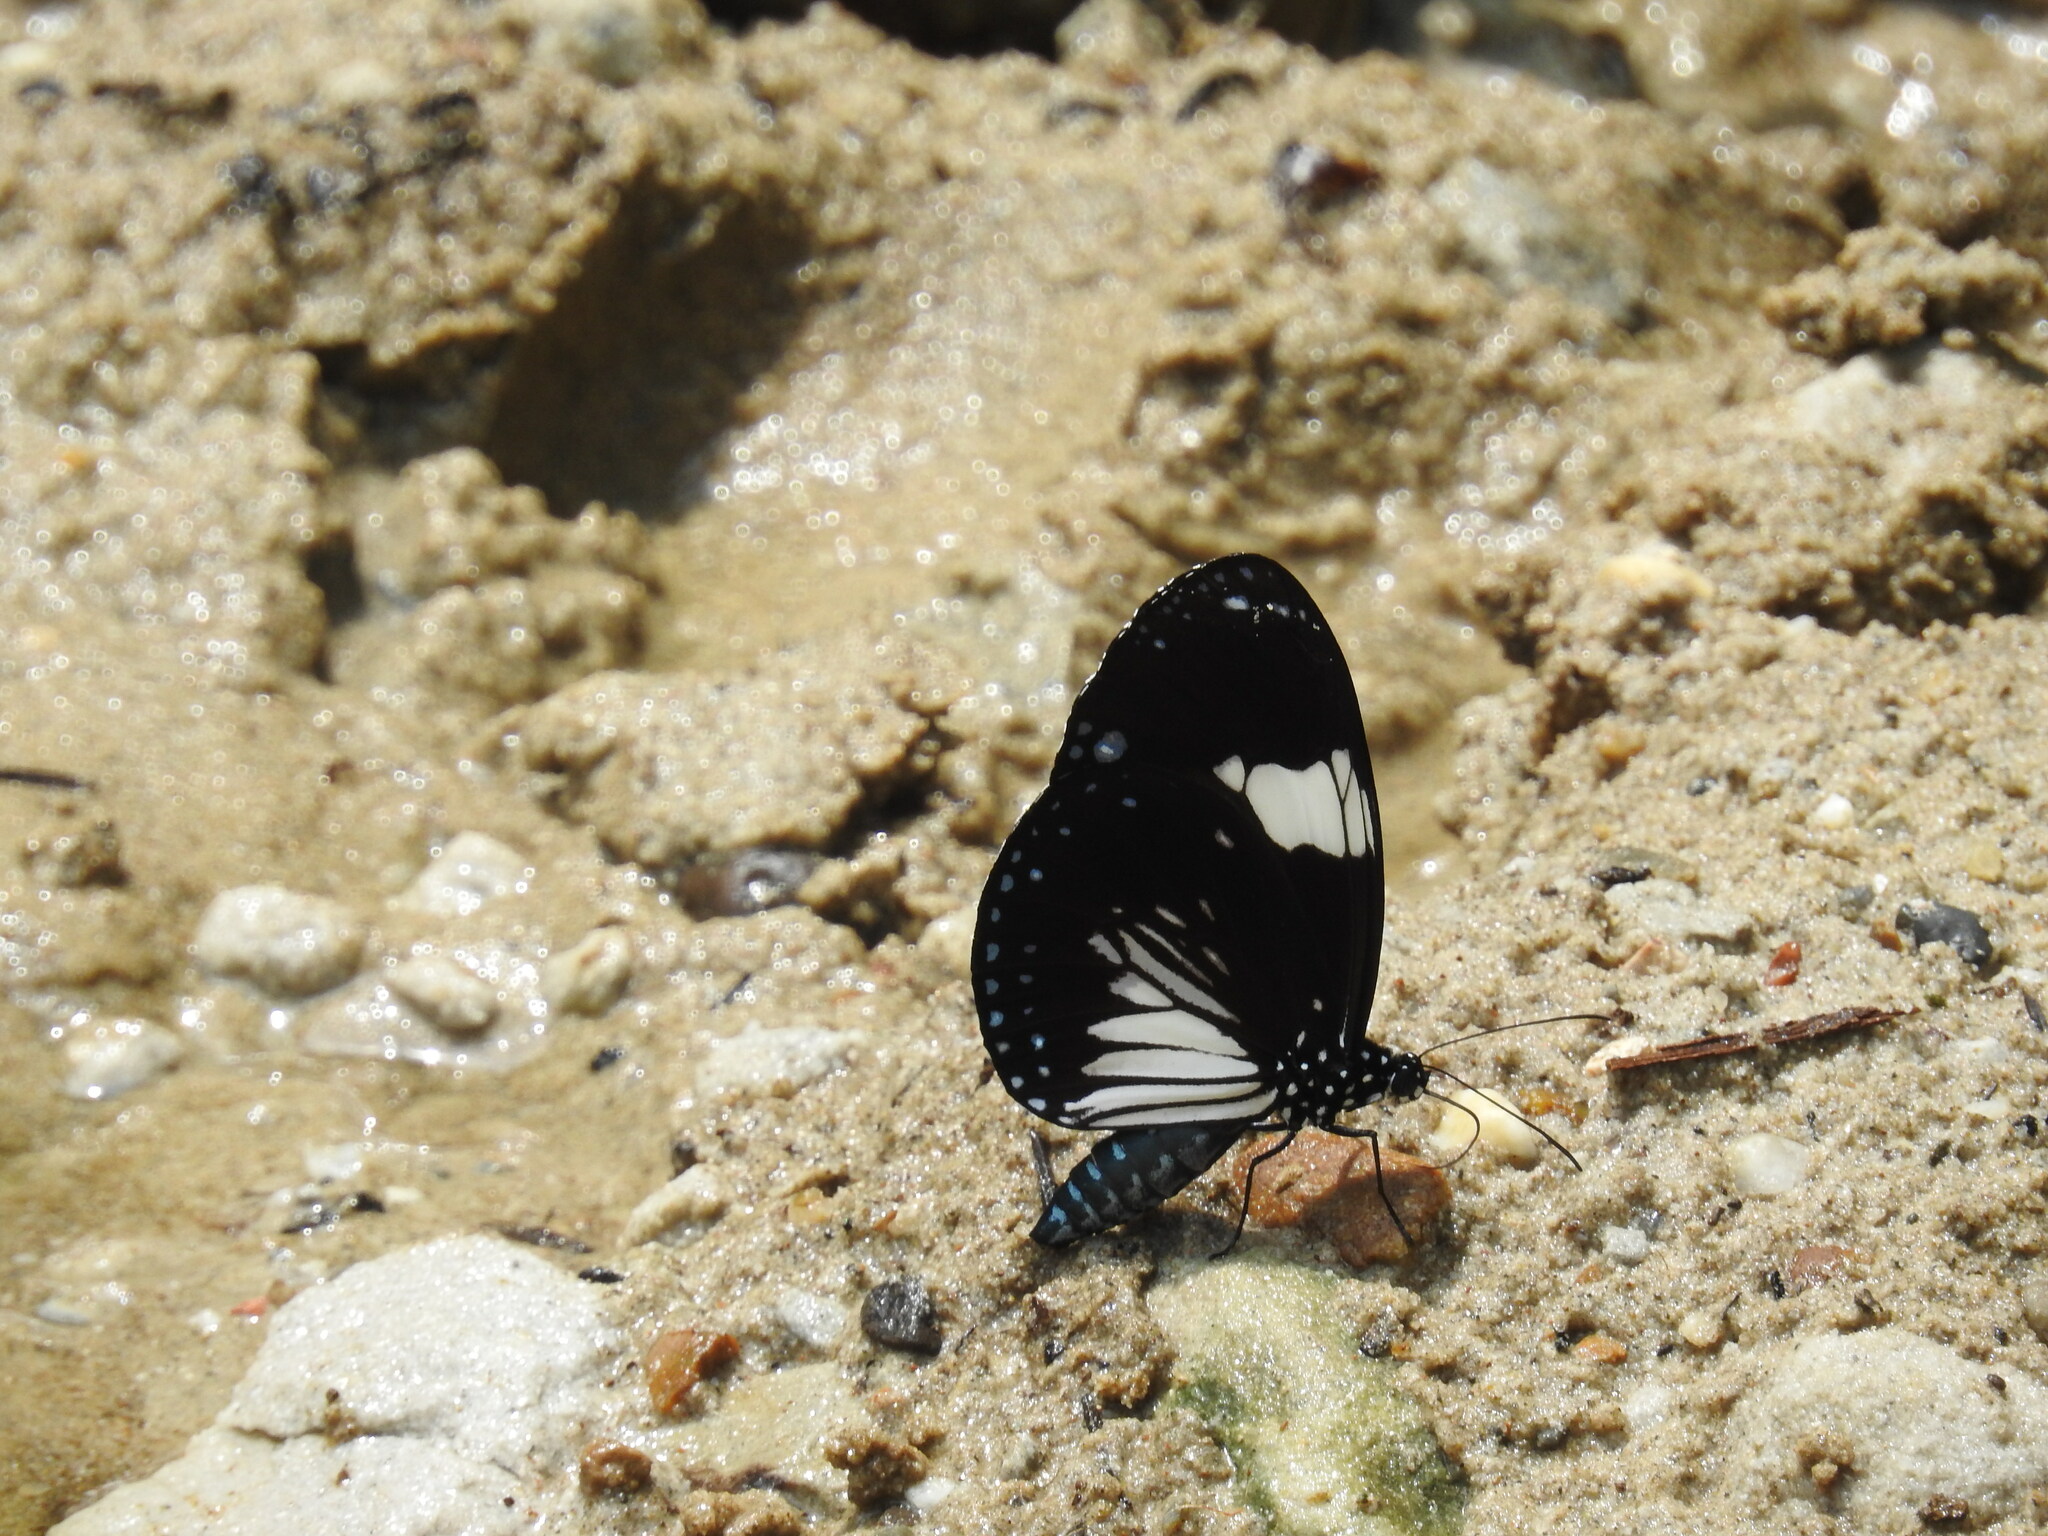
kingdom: Animalia
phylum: Arthropoda
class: Insecta
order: Lepidoptera
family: Nymphalidae
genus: Euploea
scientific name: Euploea radamanthus
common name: Magpie crow butterfly
